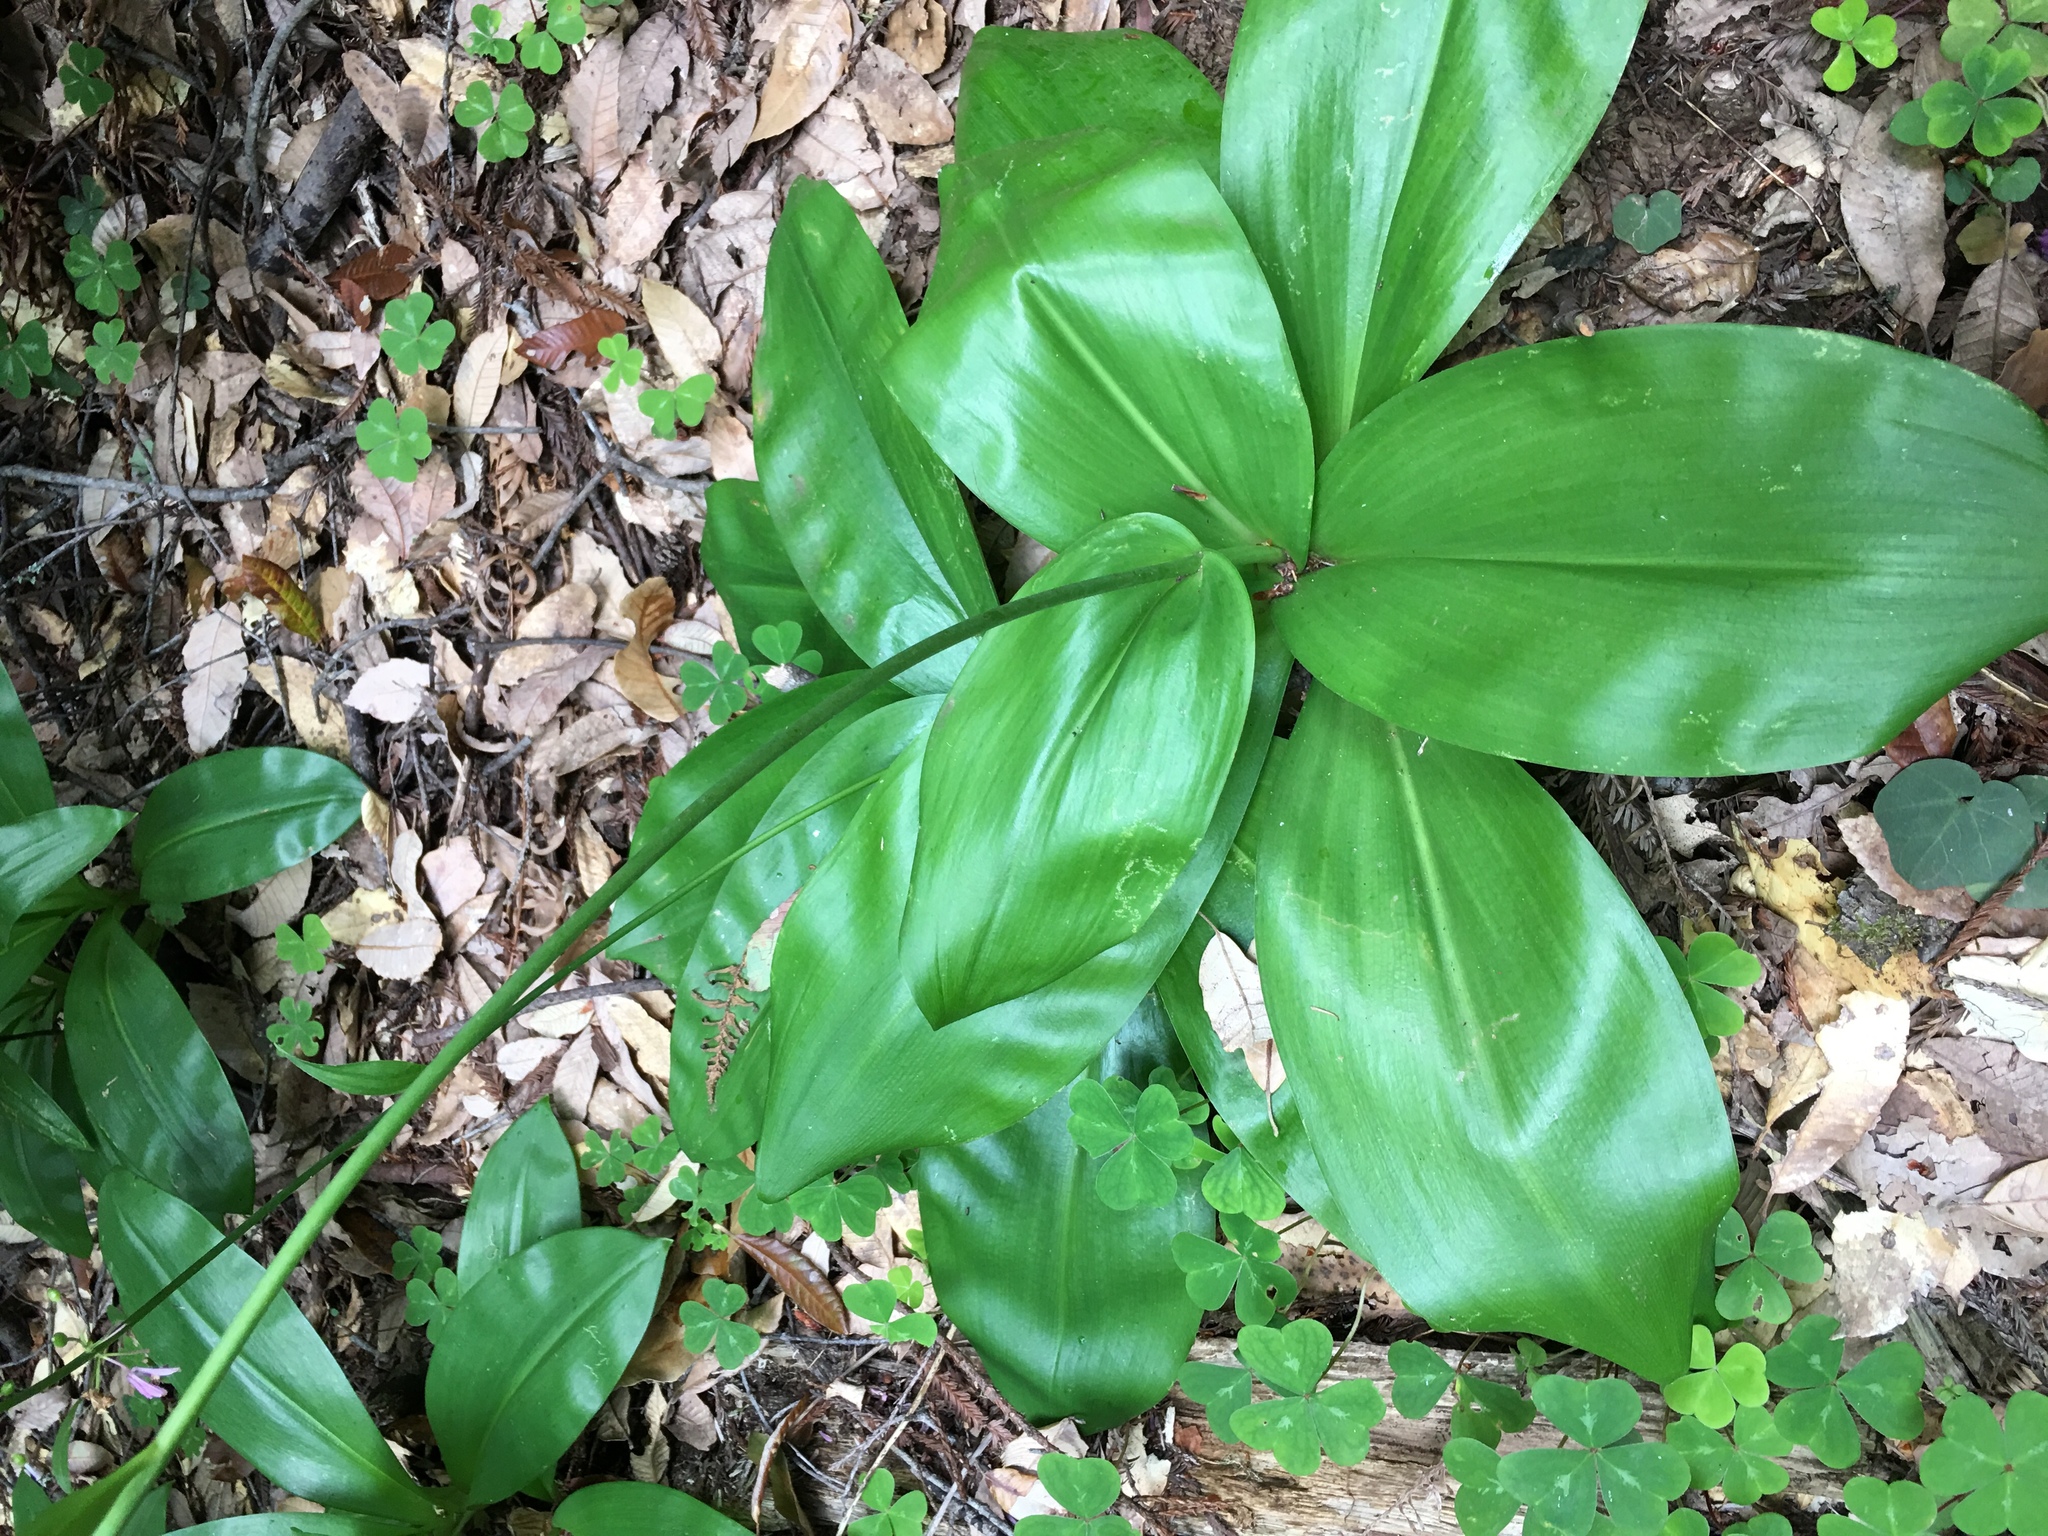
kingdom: Plantae
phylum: Tracheophyta
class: Liliopsida
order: Liliales
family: Liliaceae
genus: Clintonia
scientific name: Clintonia andrewsiana
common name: Red clintonia
